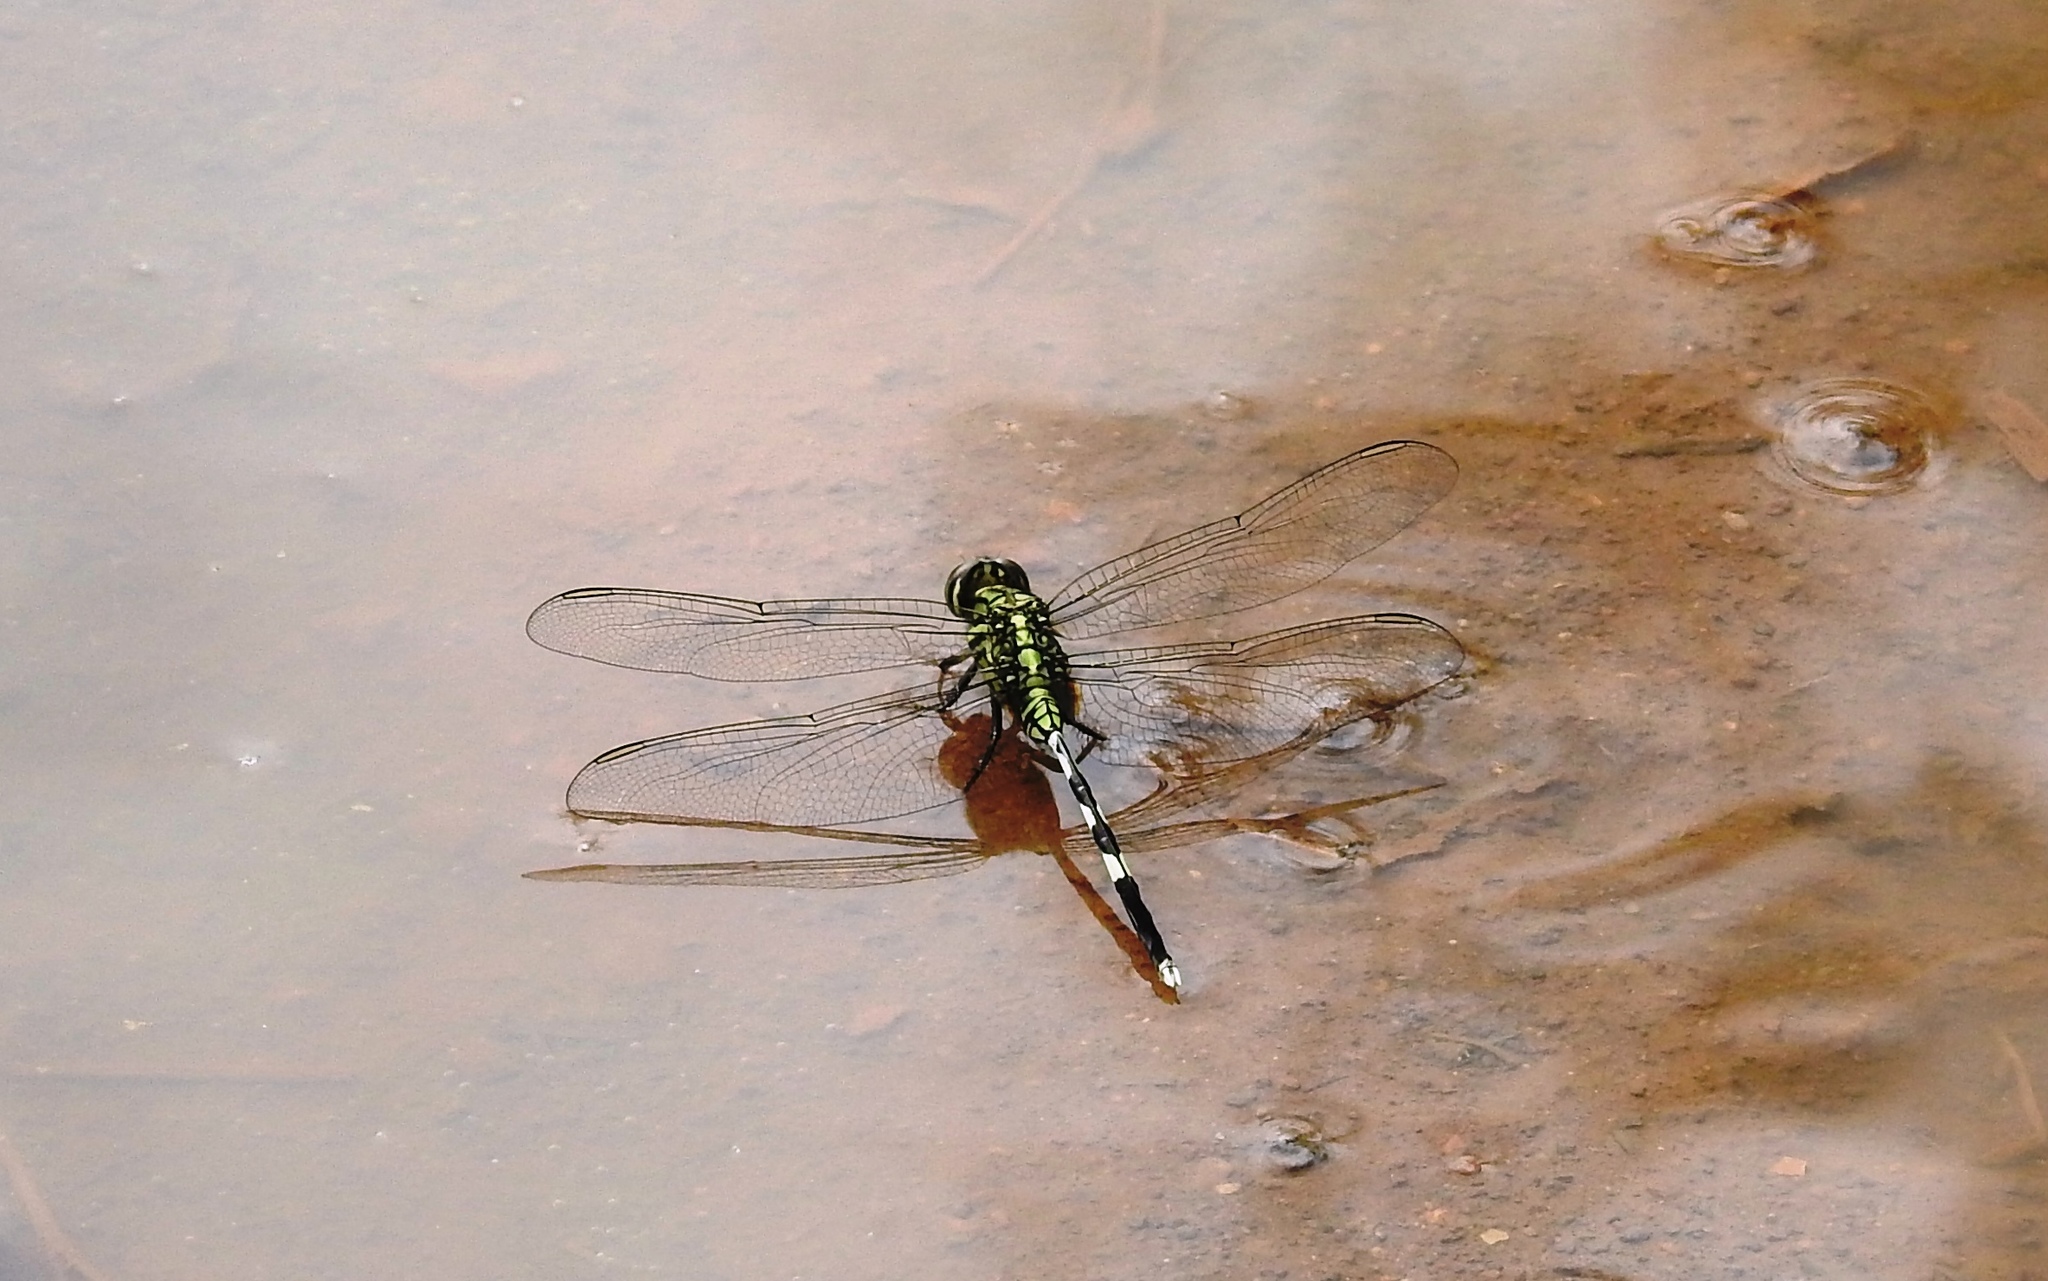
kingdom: Animalia
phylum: Arthropoda
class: Insecta
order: Odonata
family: Libellulidae
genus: Orthetrum
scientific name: Orthetrum sabina
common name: Slender skimmer
